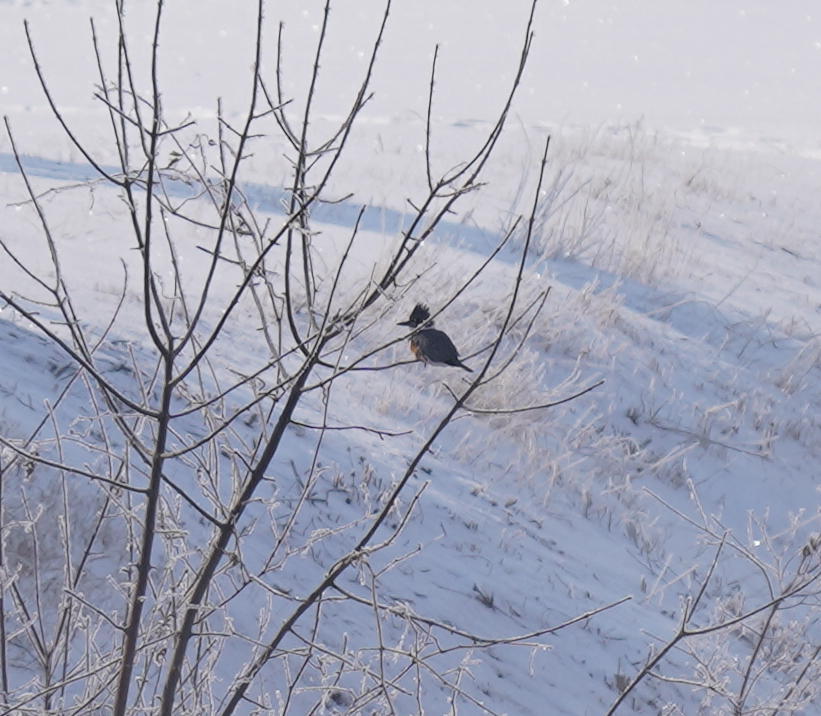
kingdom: Animalia
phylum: Chordata
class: Aves
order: Coraciiformes
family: Alcedinidae
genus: Megaceryle
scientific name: Megaceryle alcyon
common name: Belted kingfisher
